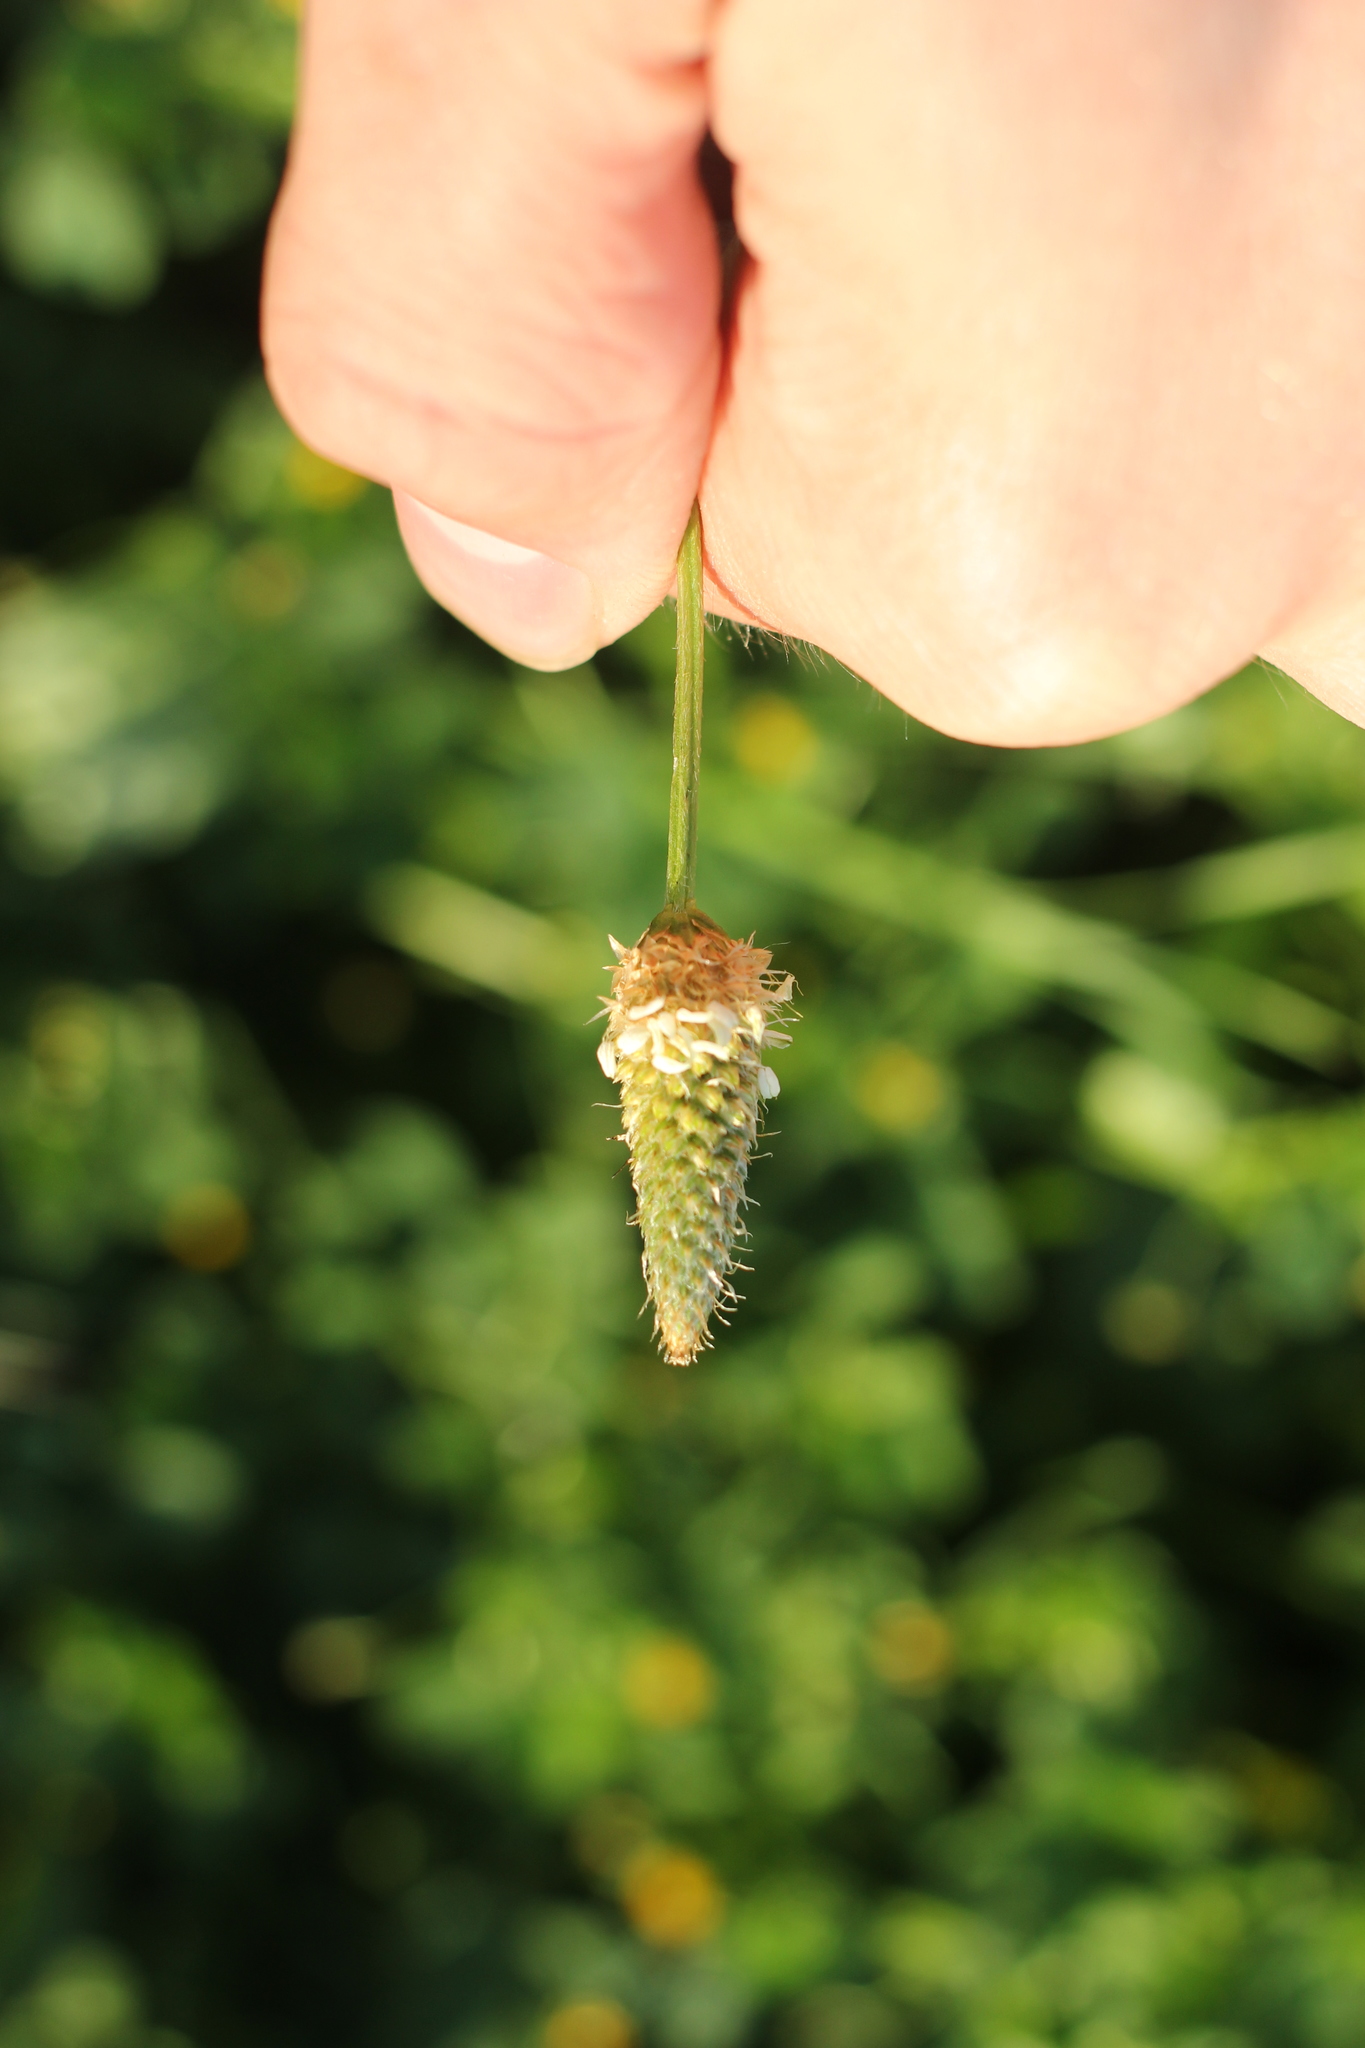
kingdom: Plantae
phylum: Tracheophyta
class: Magnoliopsida
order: Lamiales
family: Plantaginaceae
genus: Plantago
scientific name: Plantago lanceolata
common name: Ribwort plantain
